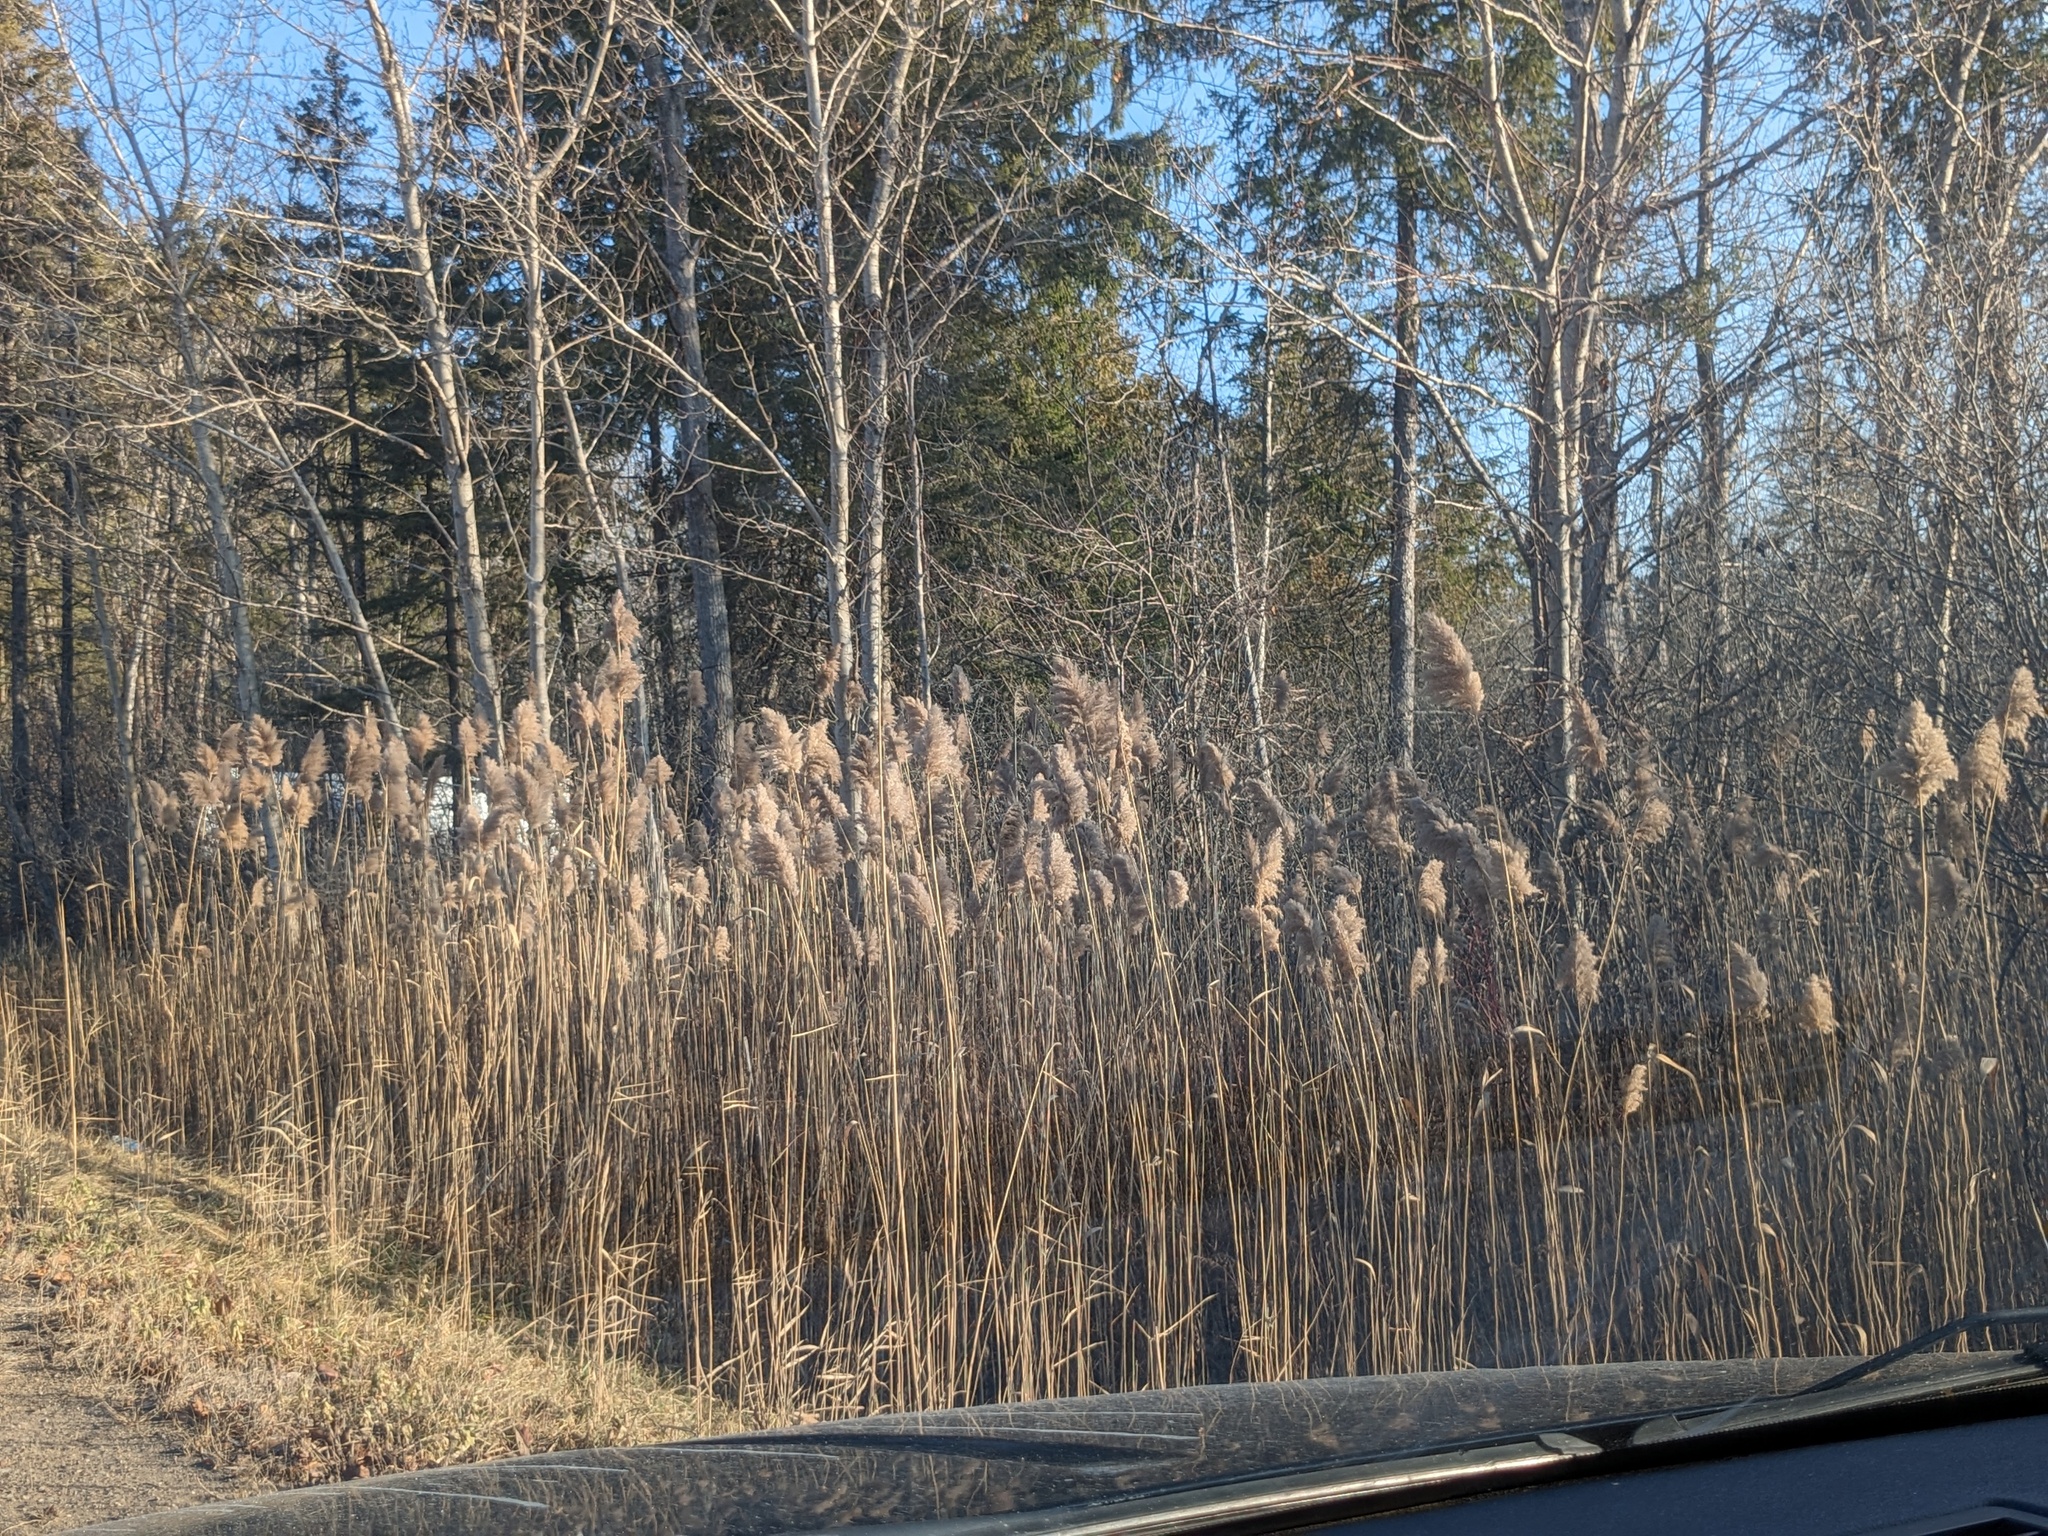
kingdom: Plantae
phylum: Tracheophyta
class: Liliopsida
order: Poales
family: Poaceae
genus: Phragmites
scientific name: Phragmites australis
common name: Common reed
